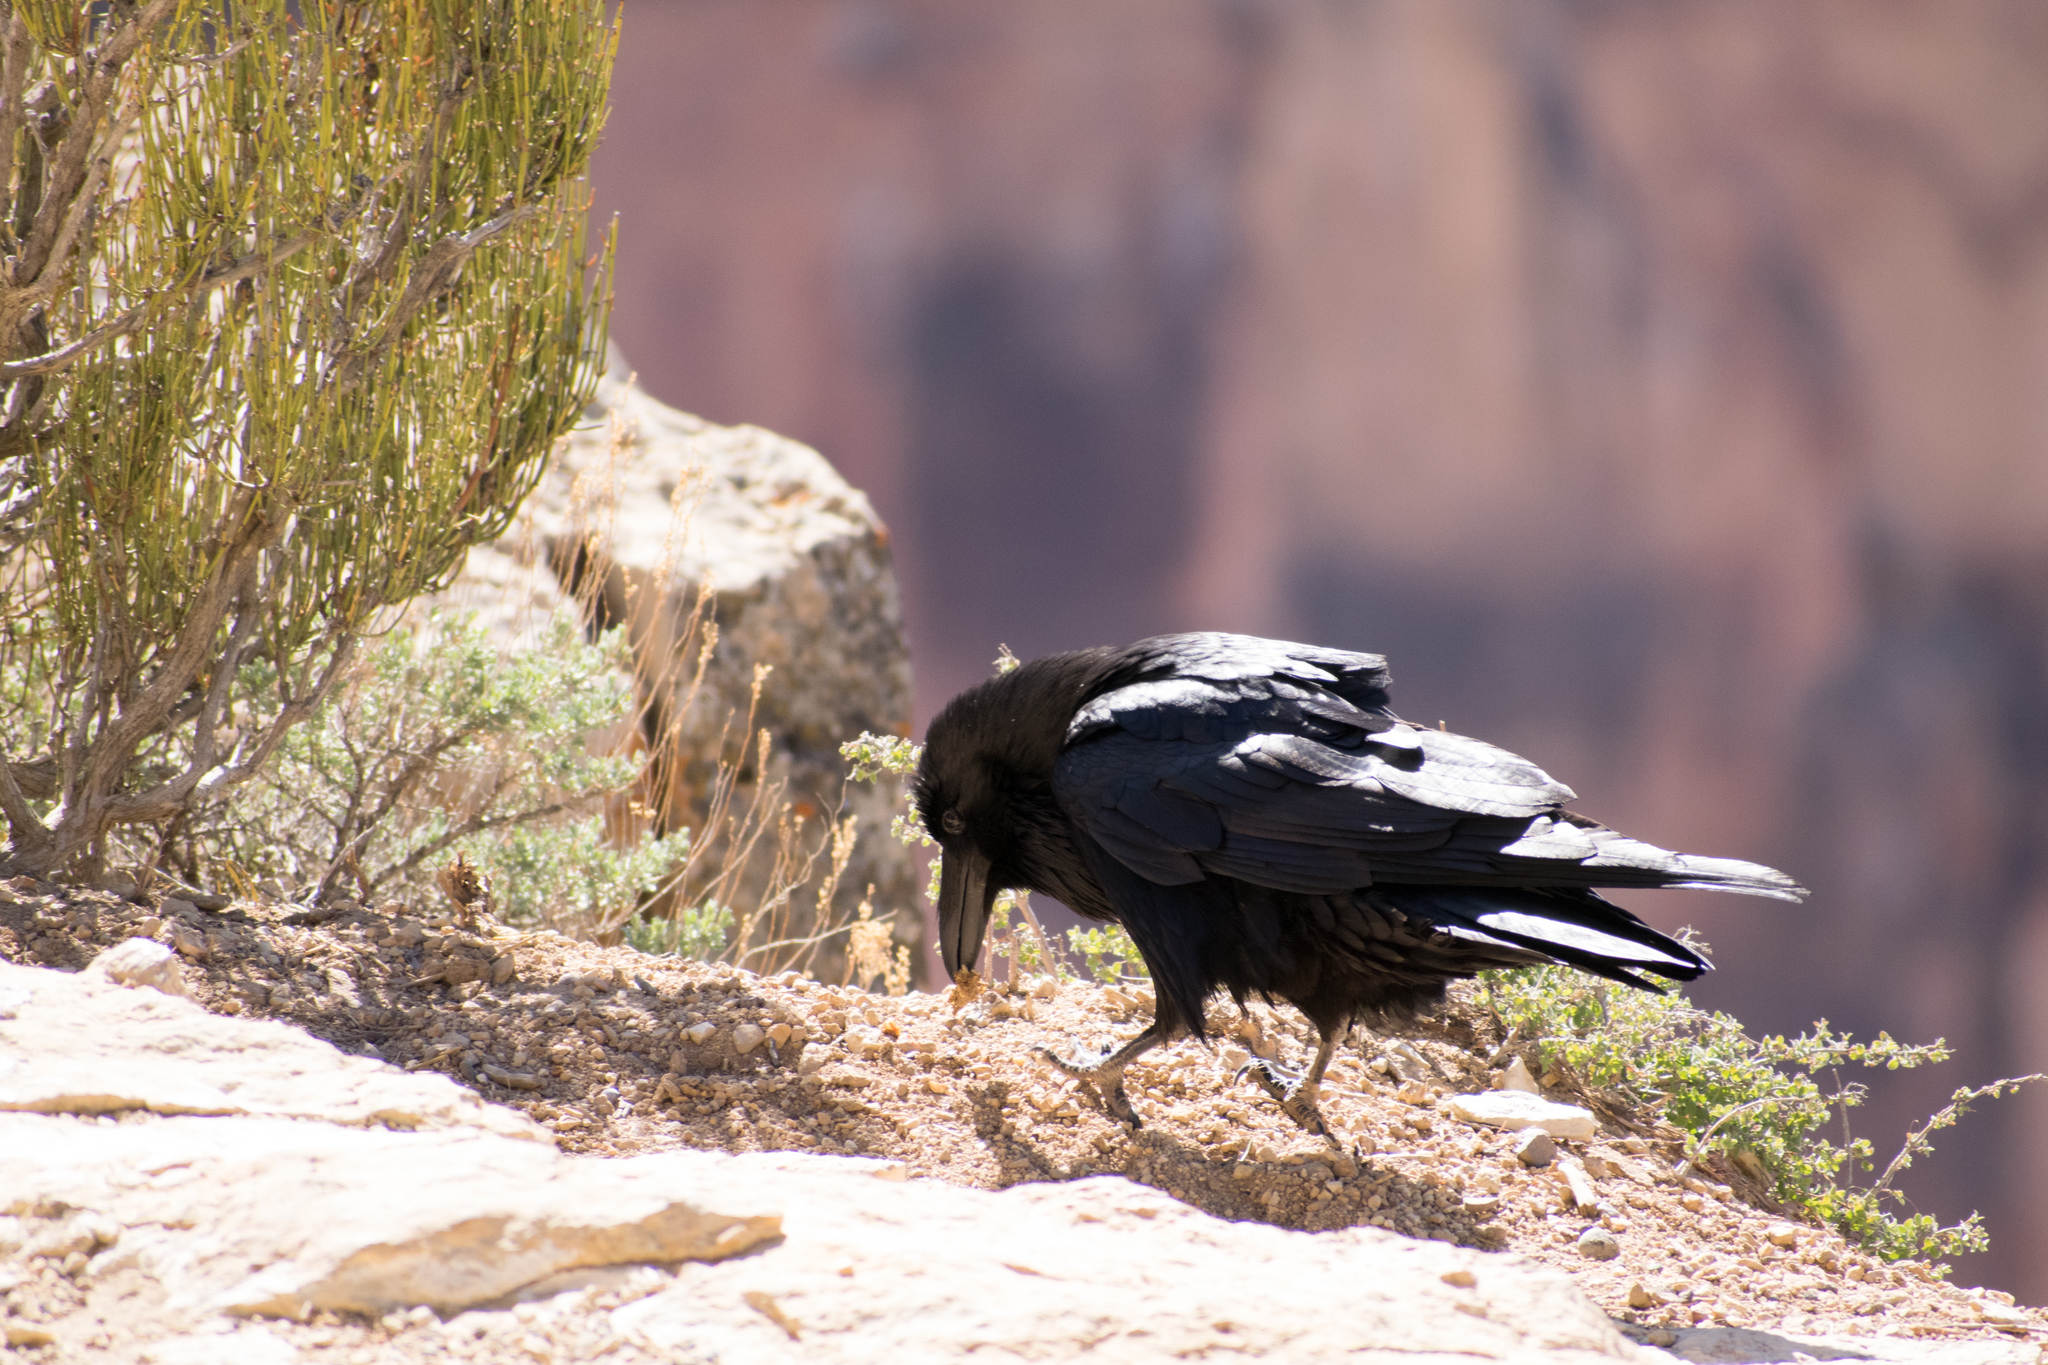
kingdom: Animalia
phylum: Chordata
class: Aves
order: Passeriformes
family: Corvidae
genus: Corvus
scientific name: Corvus corax
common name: Common raven
